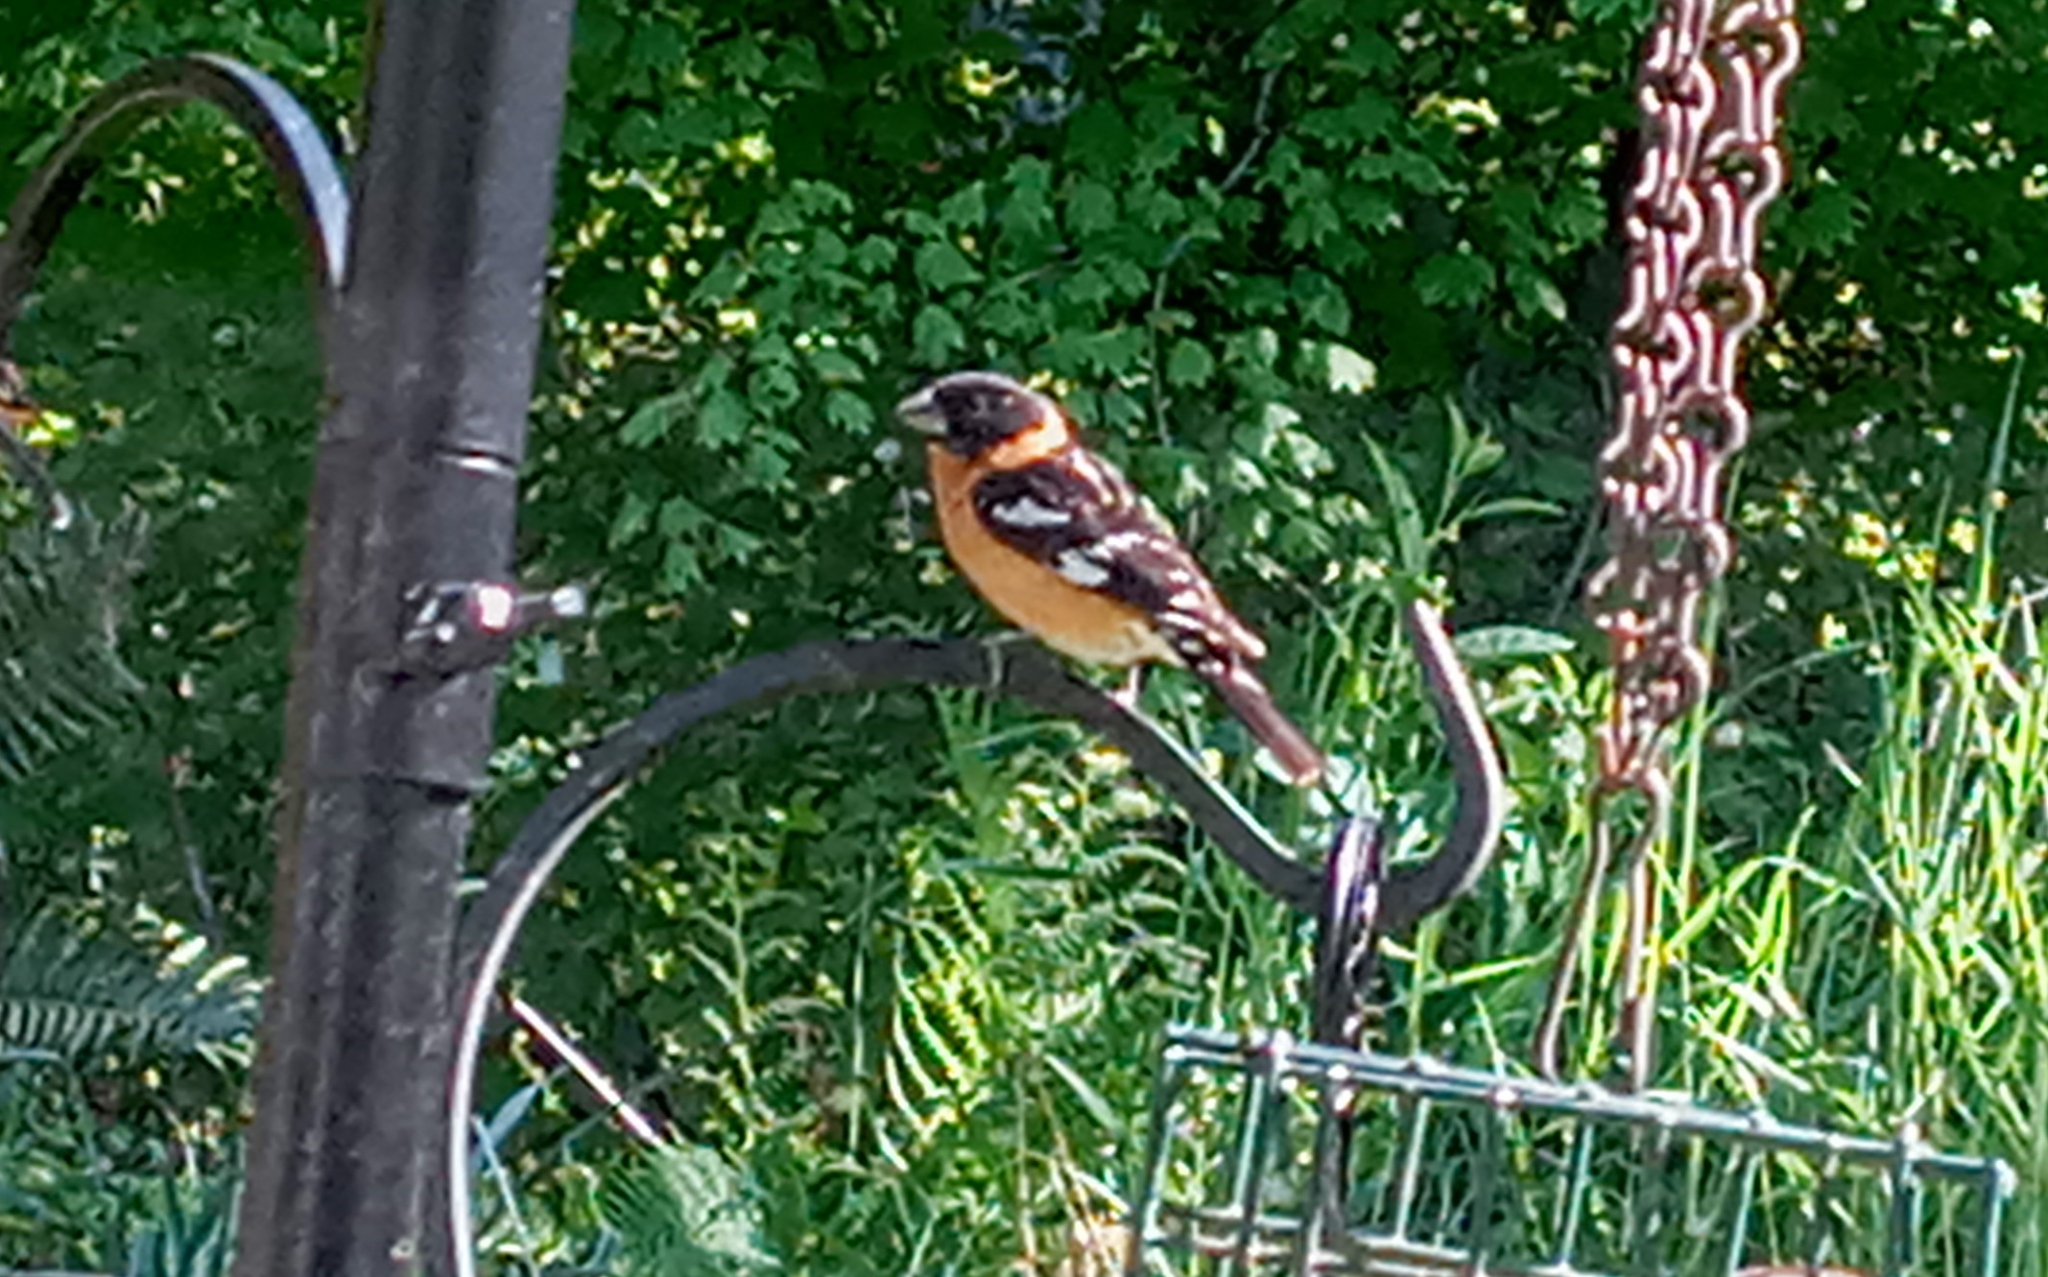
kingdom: Animalia
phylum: Chordata
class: Aves
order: Passeriformes
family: Cardinalidae
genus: Pheucticus
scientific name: Pheucticus melanocephalus
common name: Black-headed grosbeak
